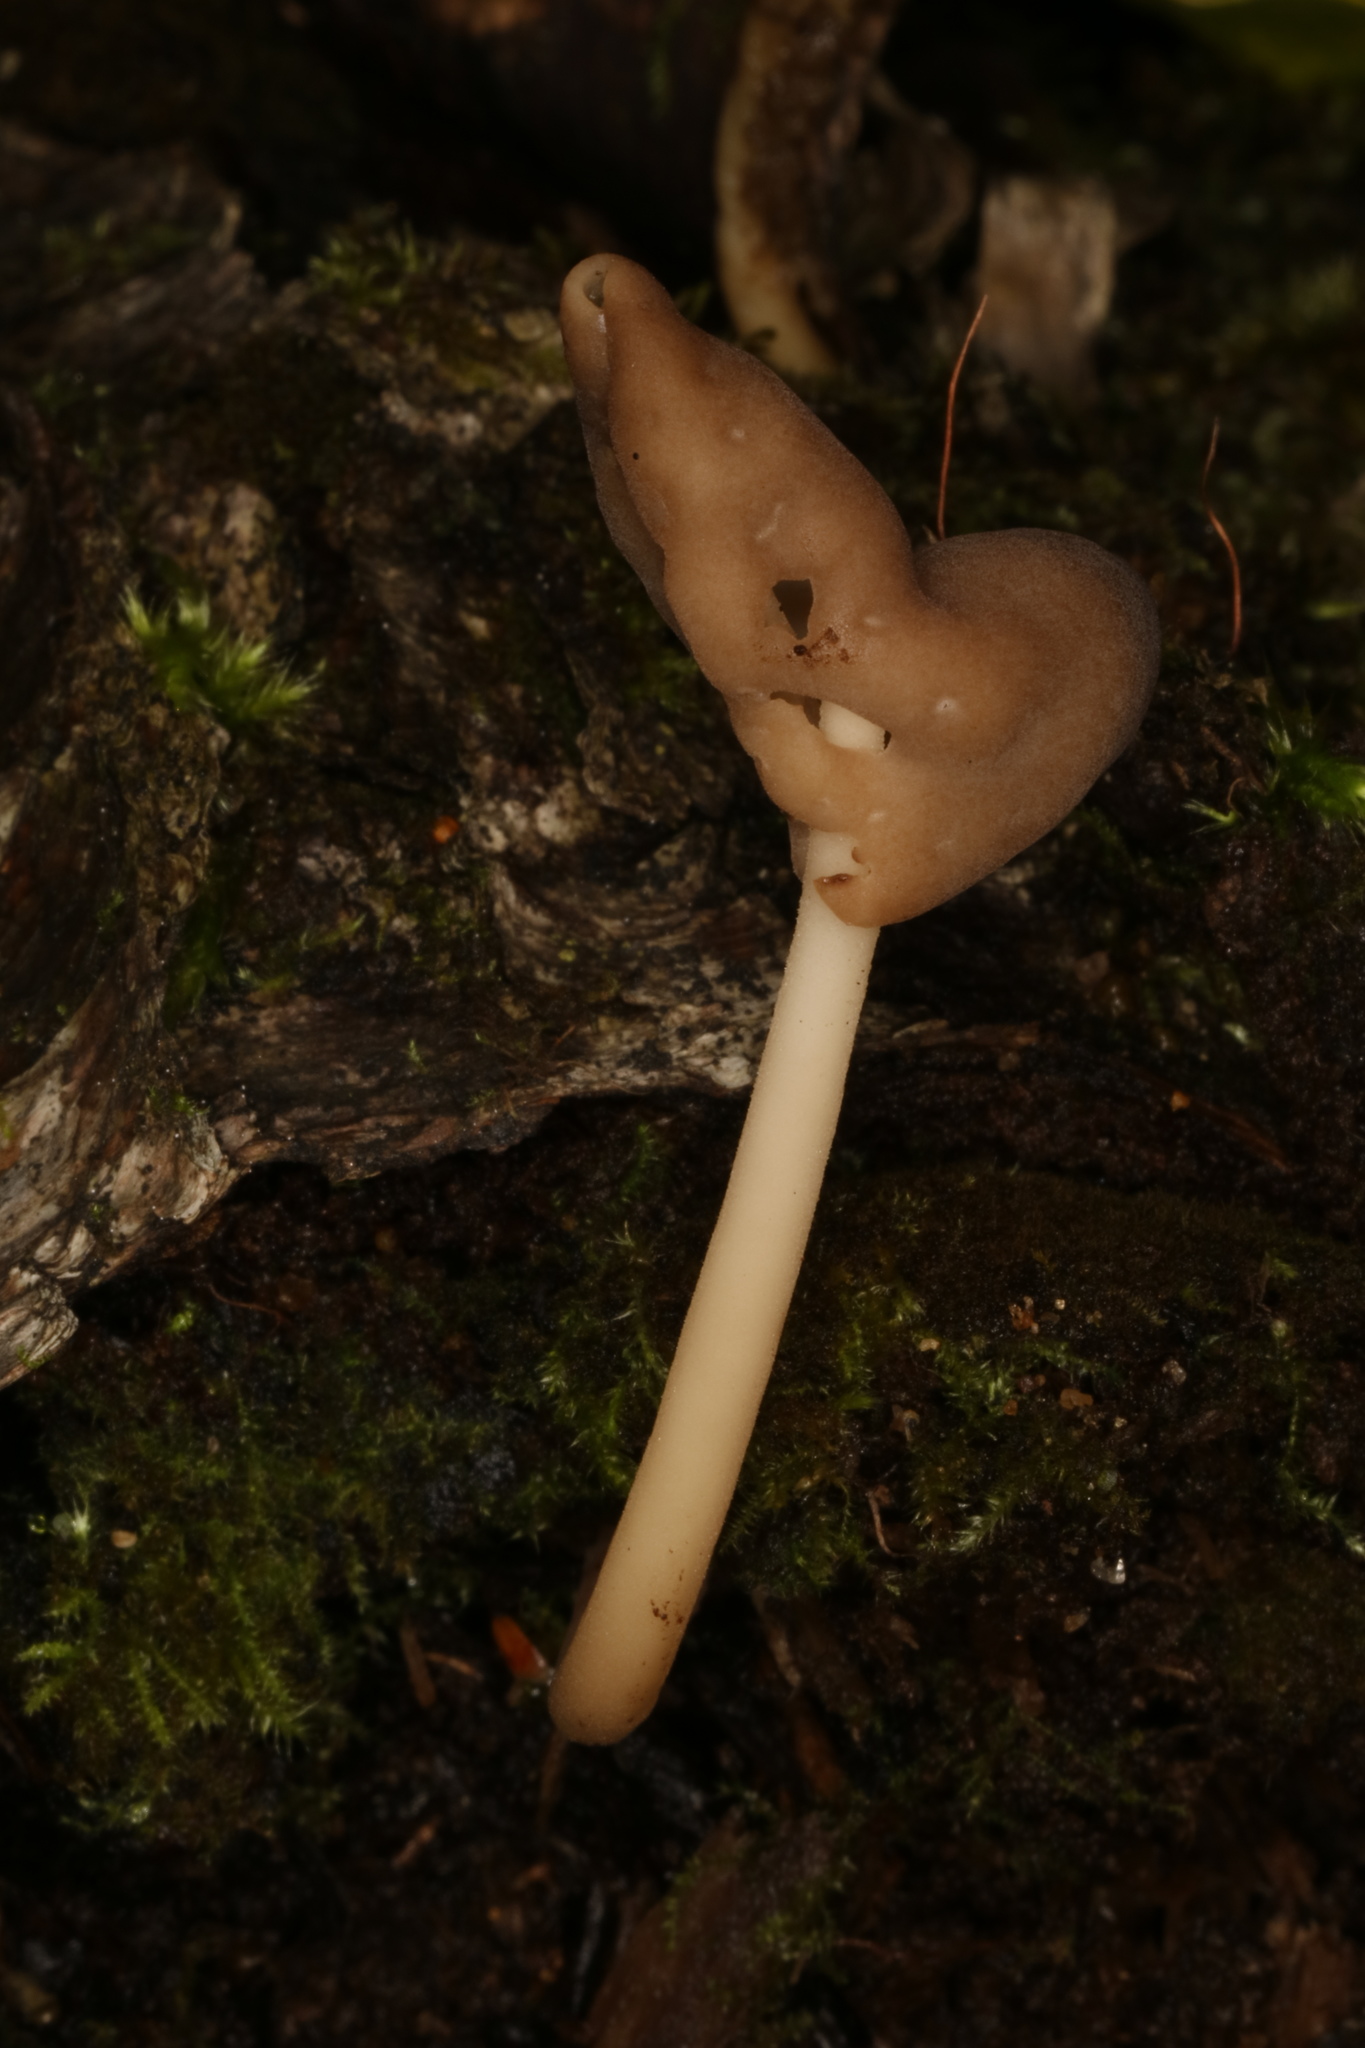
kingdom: Fungi
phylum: Ascomycota
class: Pezizomycetes
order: Pezizales
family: Helvellaceae
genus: Helvella
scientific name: Helvella elastica
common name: Elastic saddle
